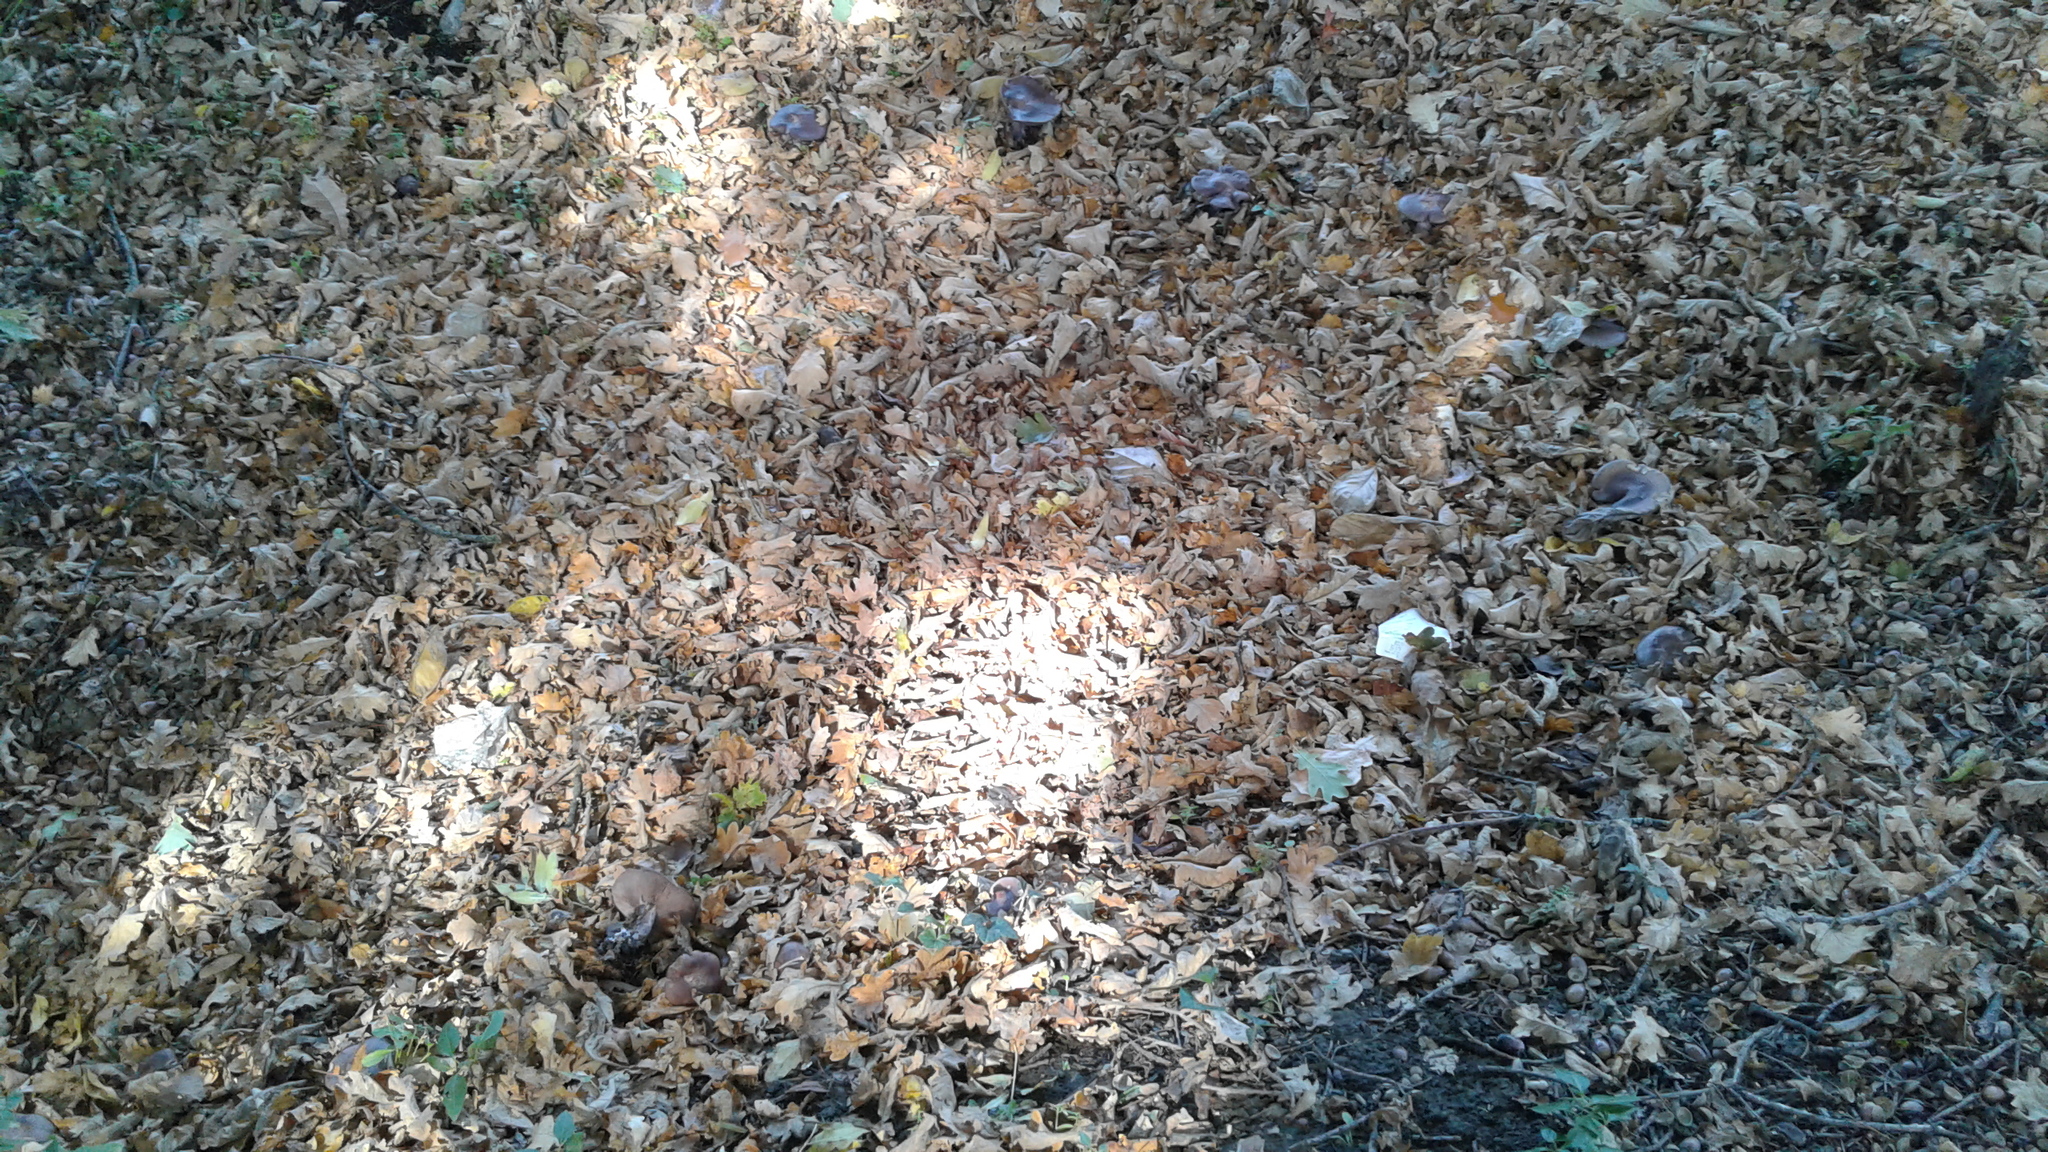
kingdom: Fungi
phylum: Basidiomycota
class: Agaricomycetes
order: Agaricales
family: Tricholomataceae
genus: Collybia
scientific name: Collybia
